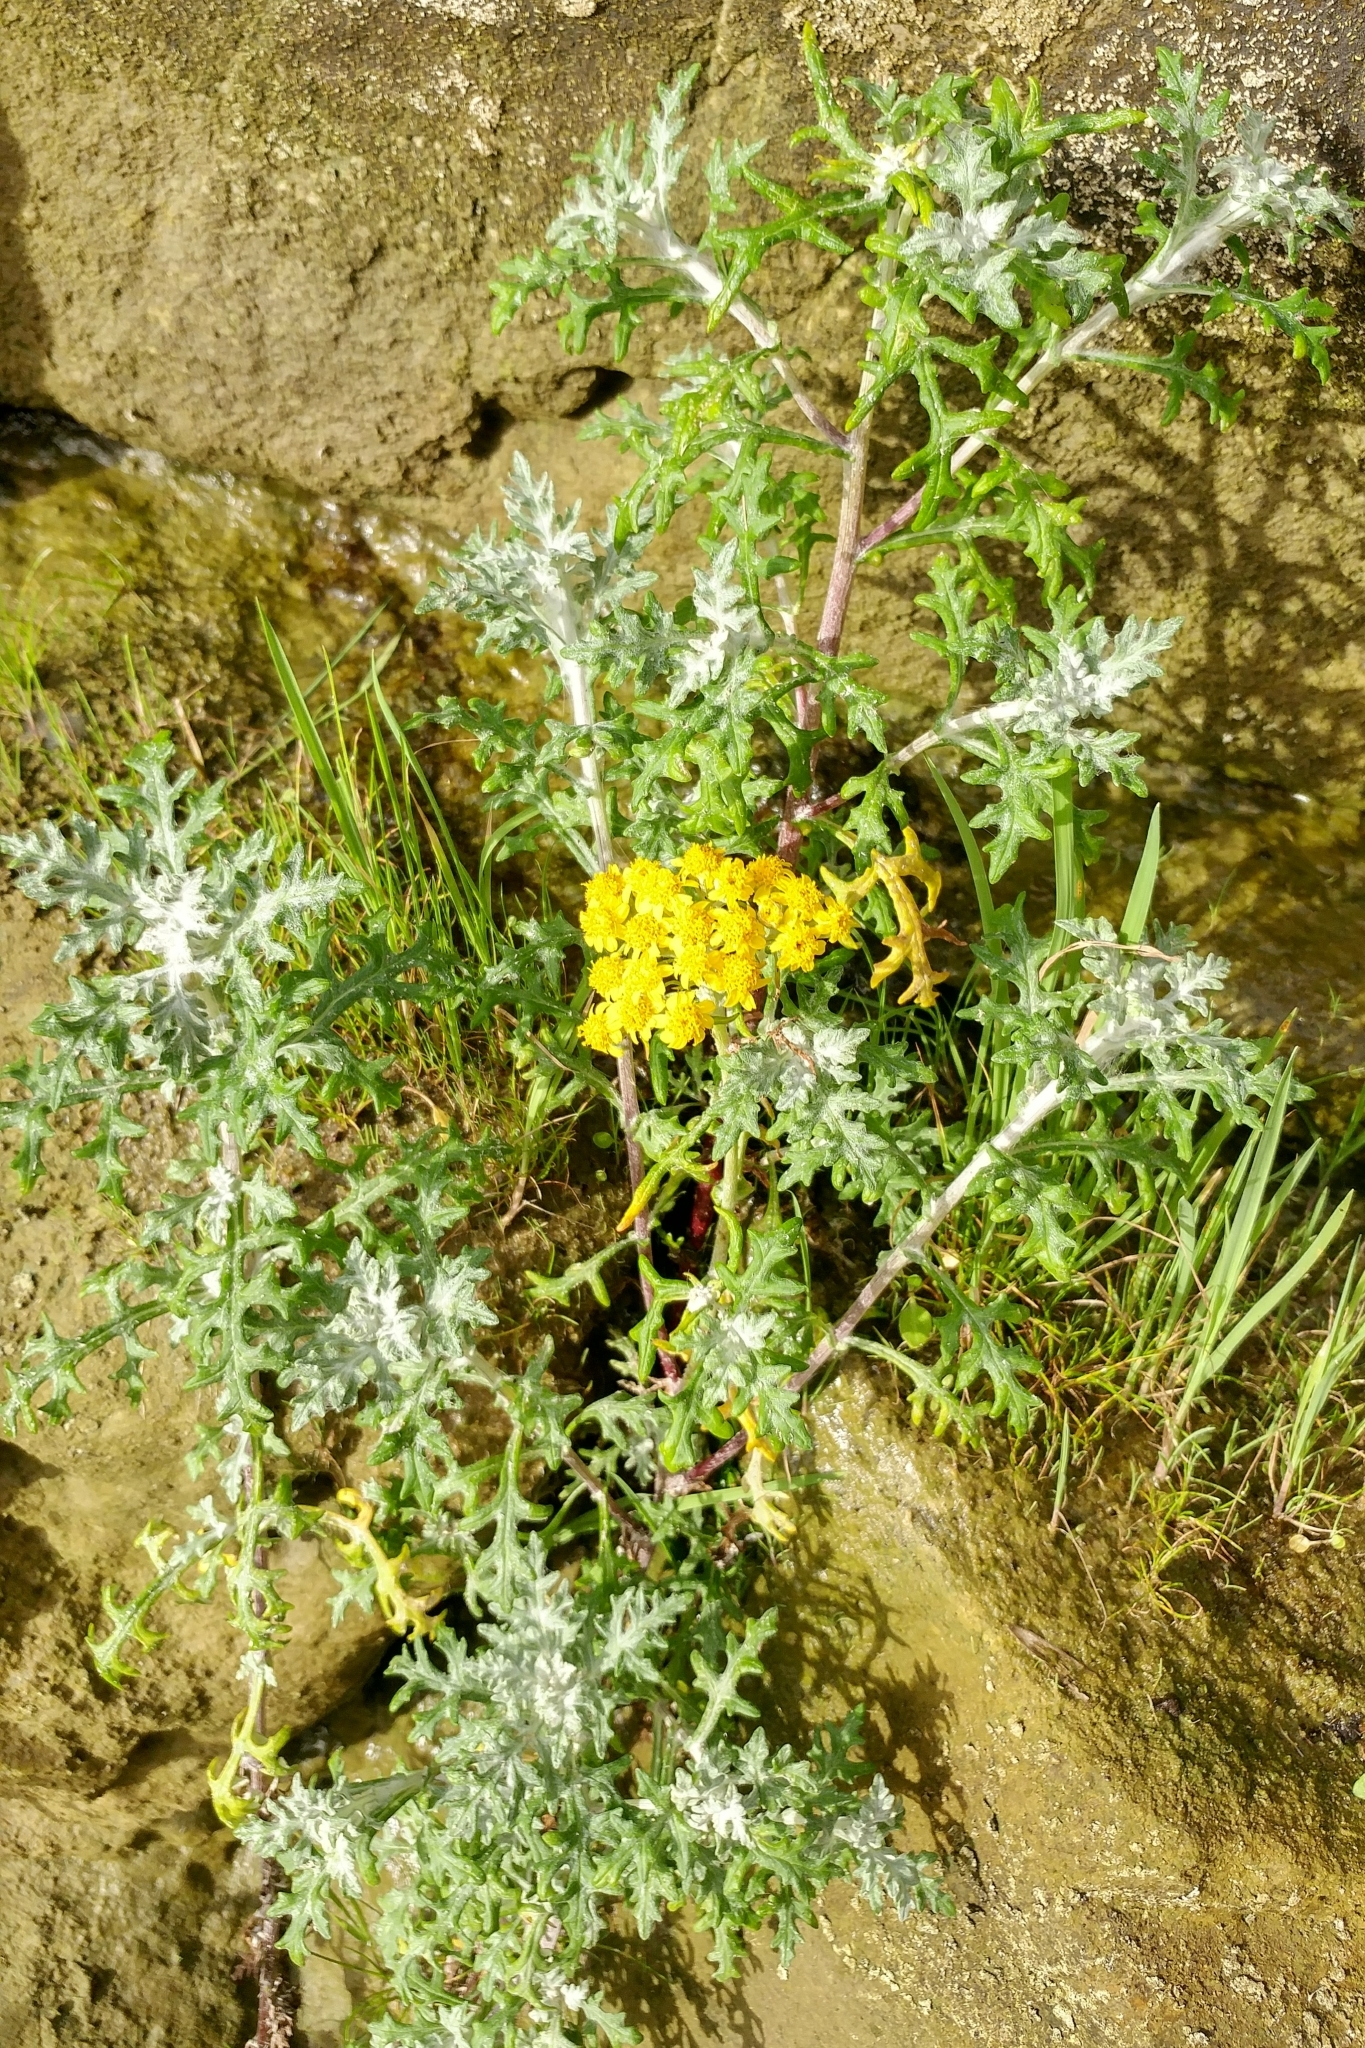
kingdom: Plantae
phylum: Tracheophyta
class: Magnoliopsida
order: Asterales
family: Asteraceae
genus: Eriophyllum
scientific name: Eriophyllum staechadifolium
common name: Lizardtail
